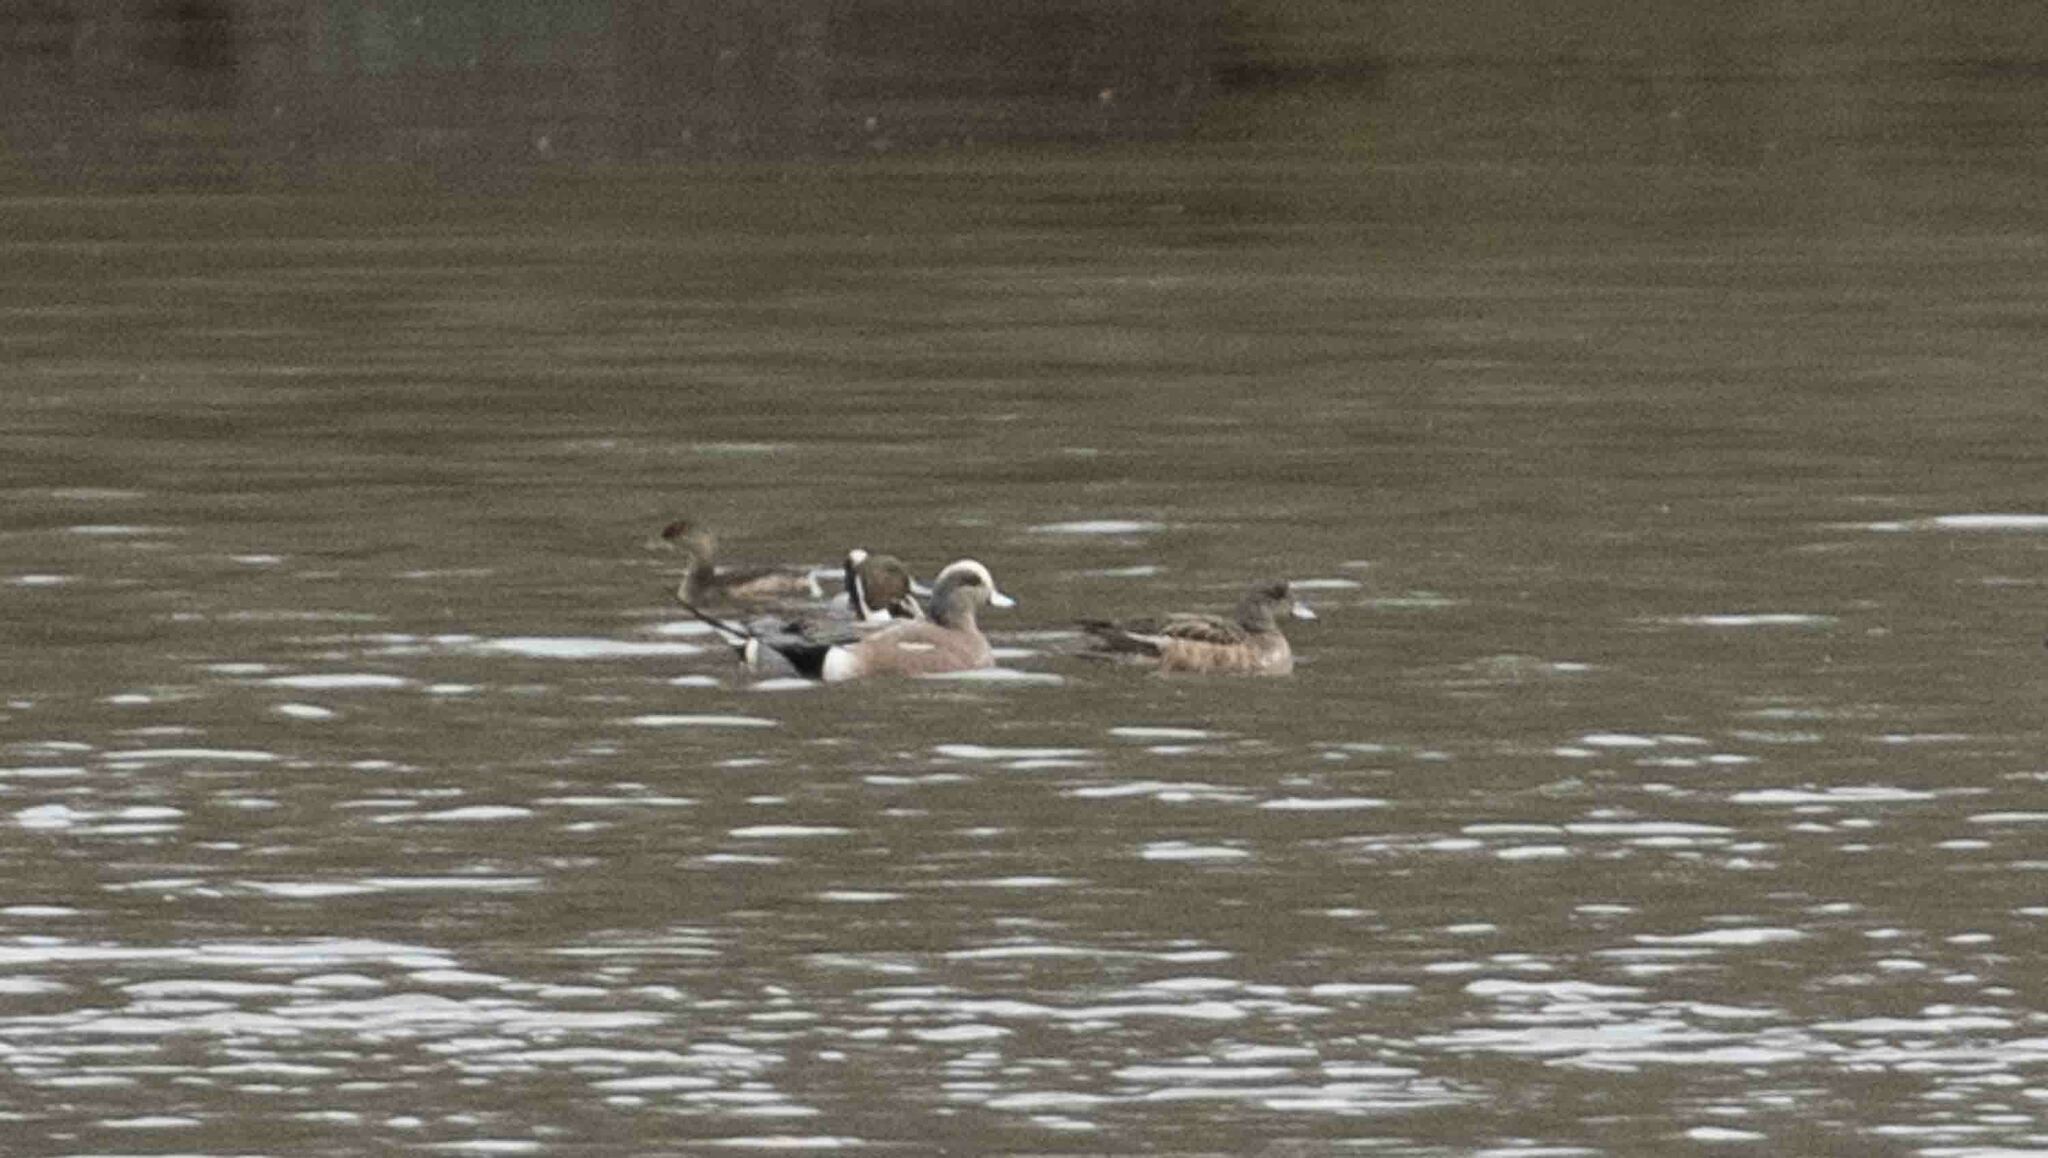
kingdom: Animalia
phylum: Chordata
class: Aves
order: Anseriformes
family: Anatidae
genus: Mareca
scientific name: Mareca americana
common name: American wigeon
